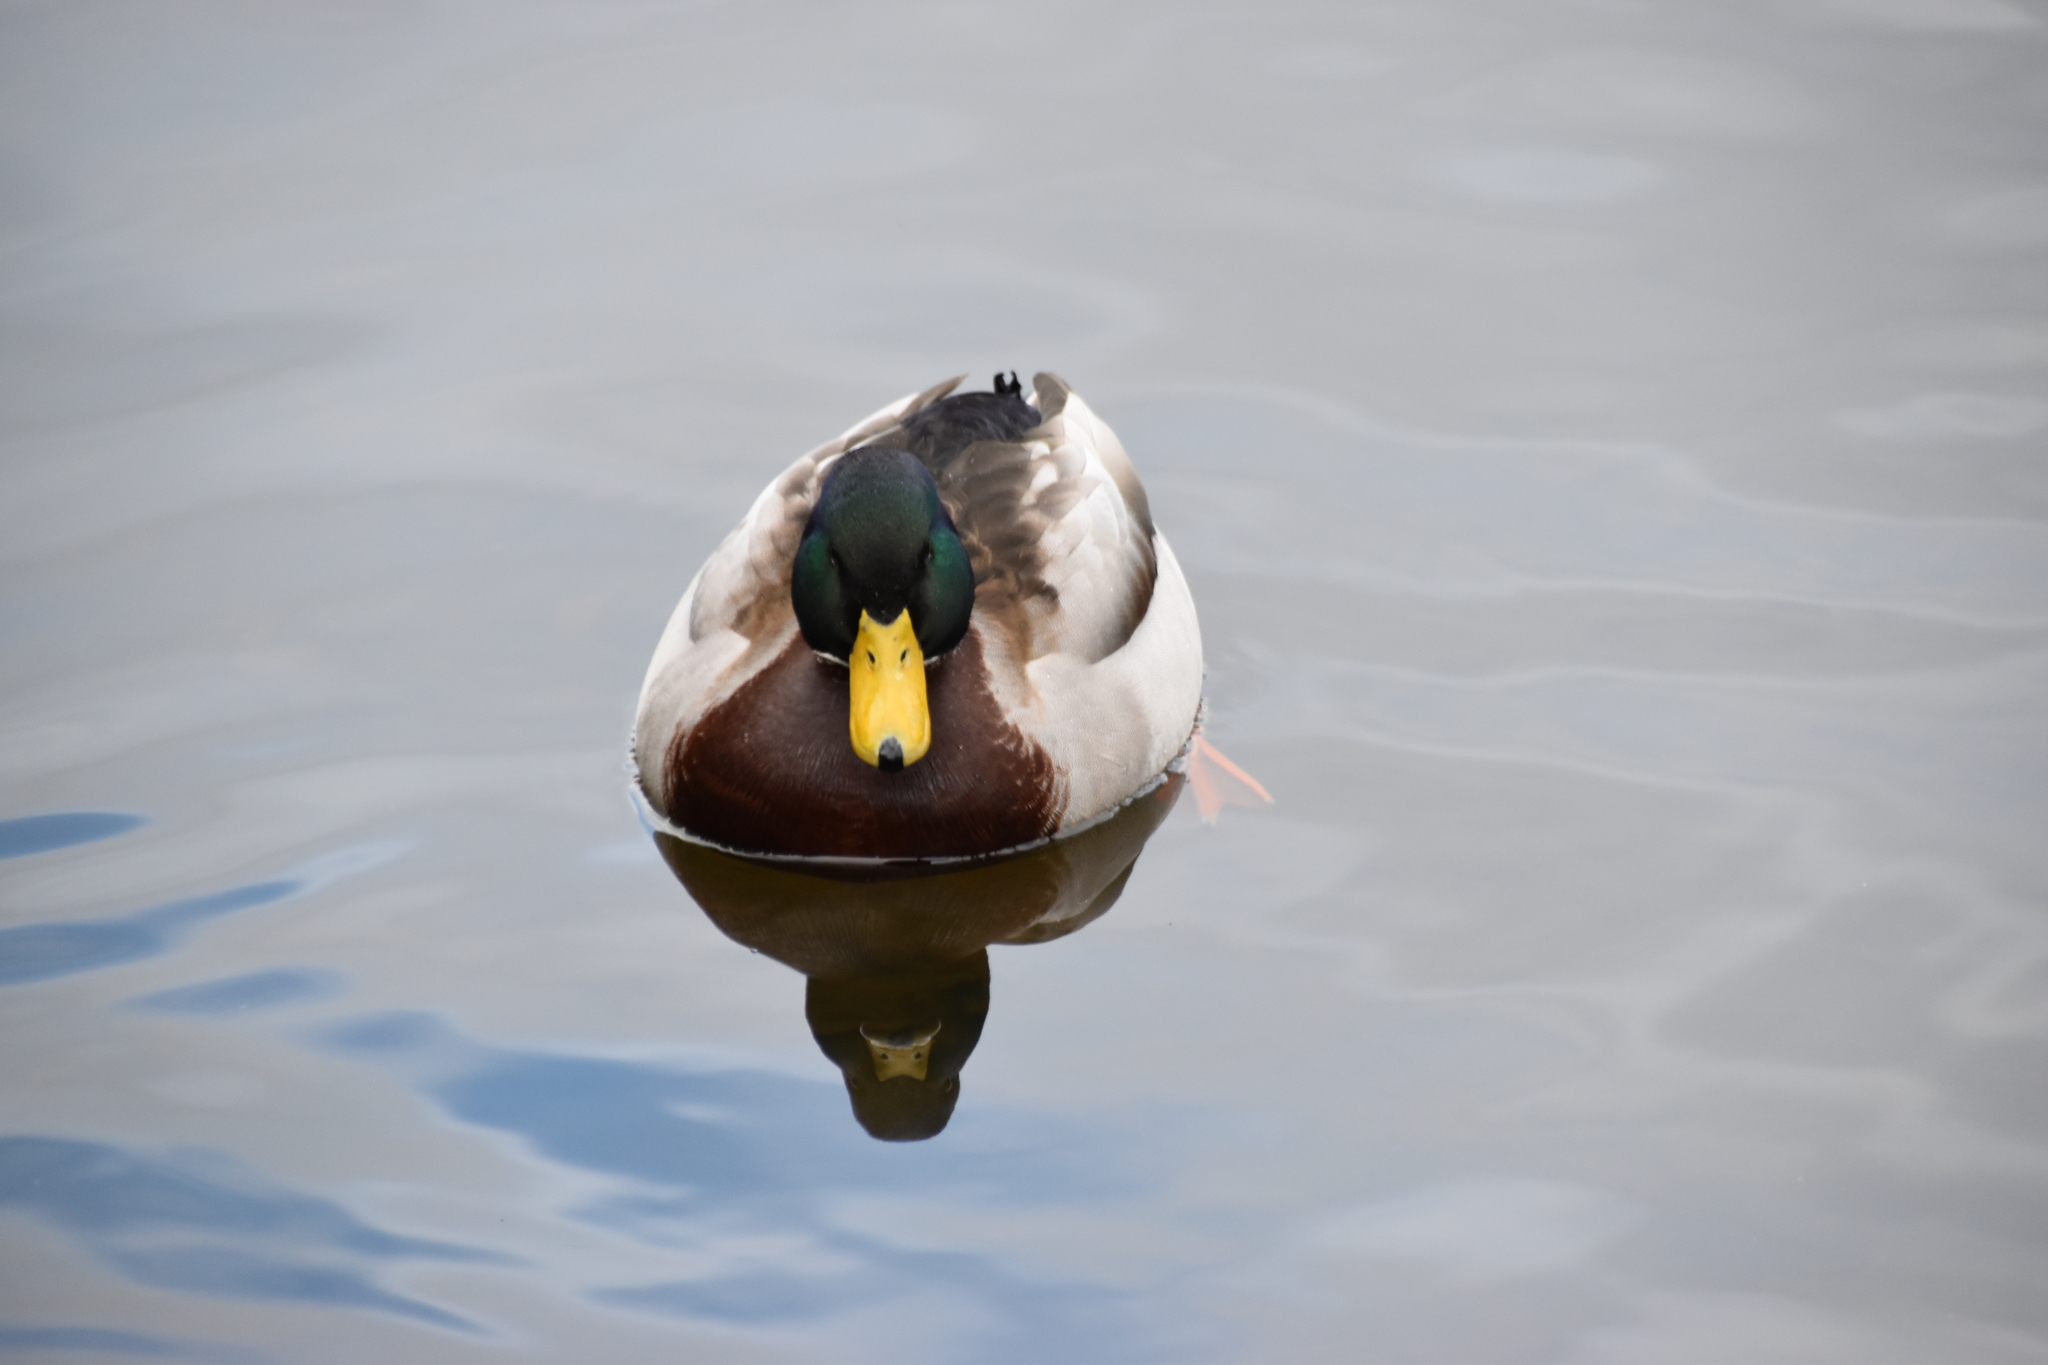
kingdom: Animalia
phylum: Chordata
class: Aves
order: Anseriformes
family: Anatidae
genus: Anas
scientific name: Anas platyrhynchos
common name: Mallard
